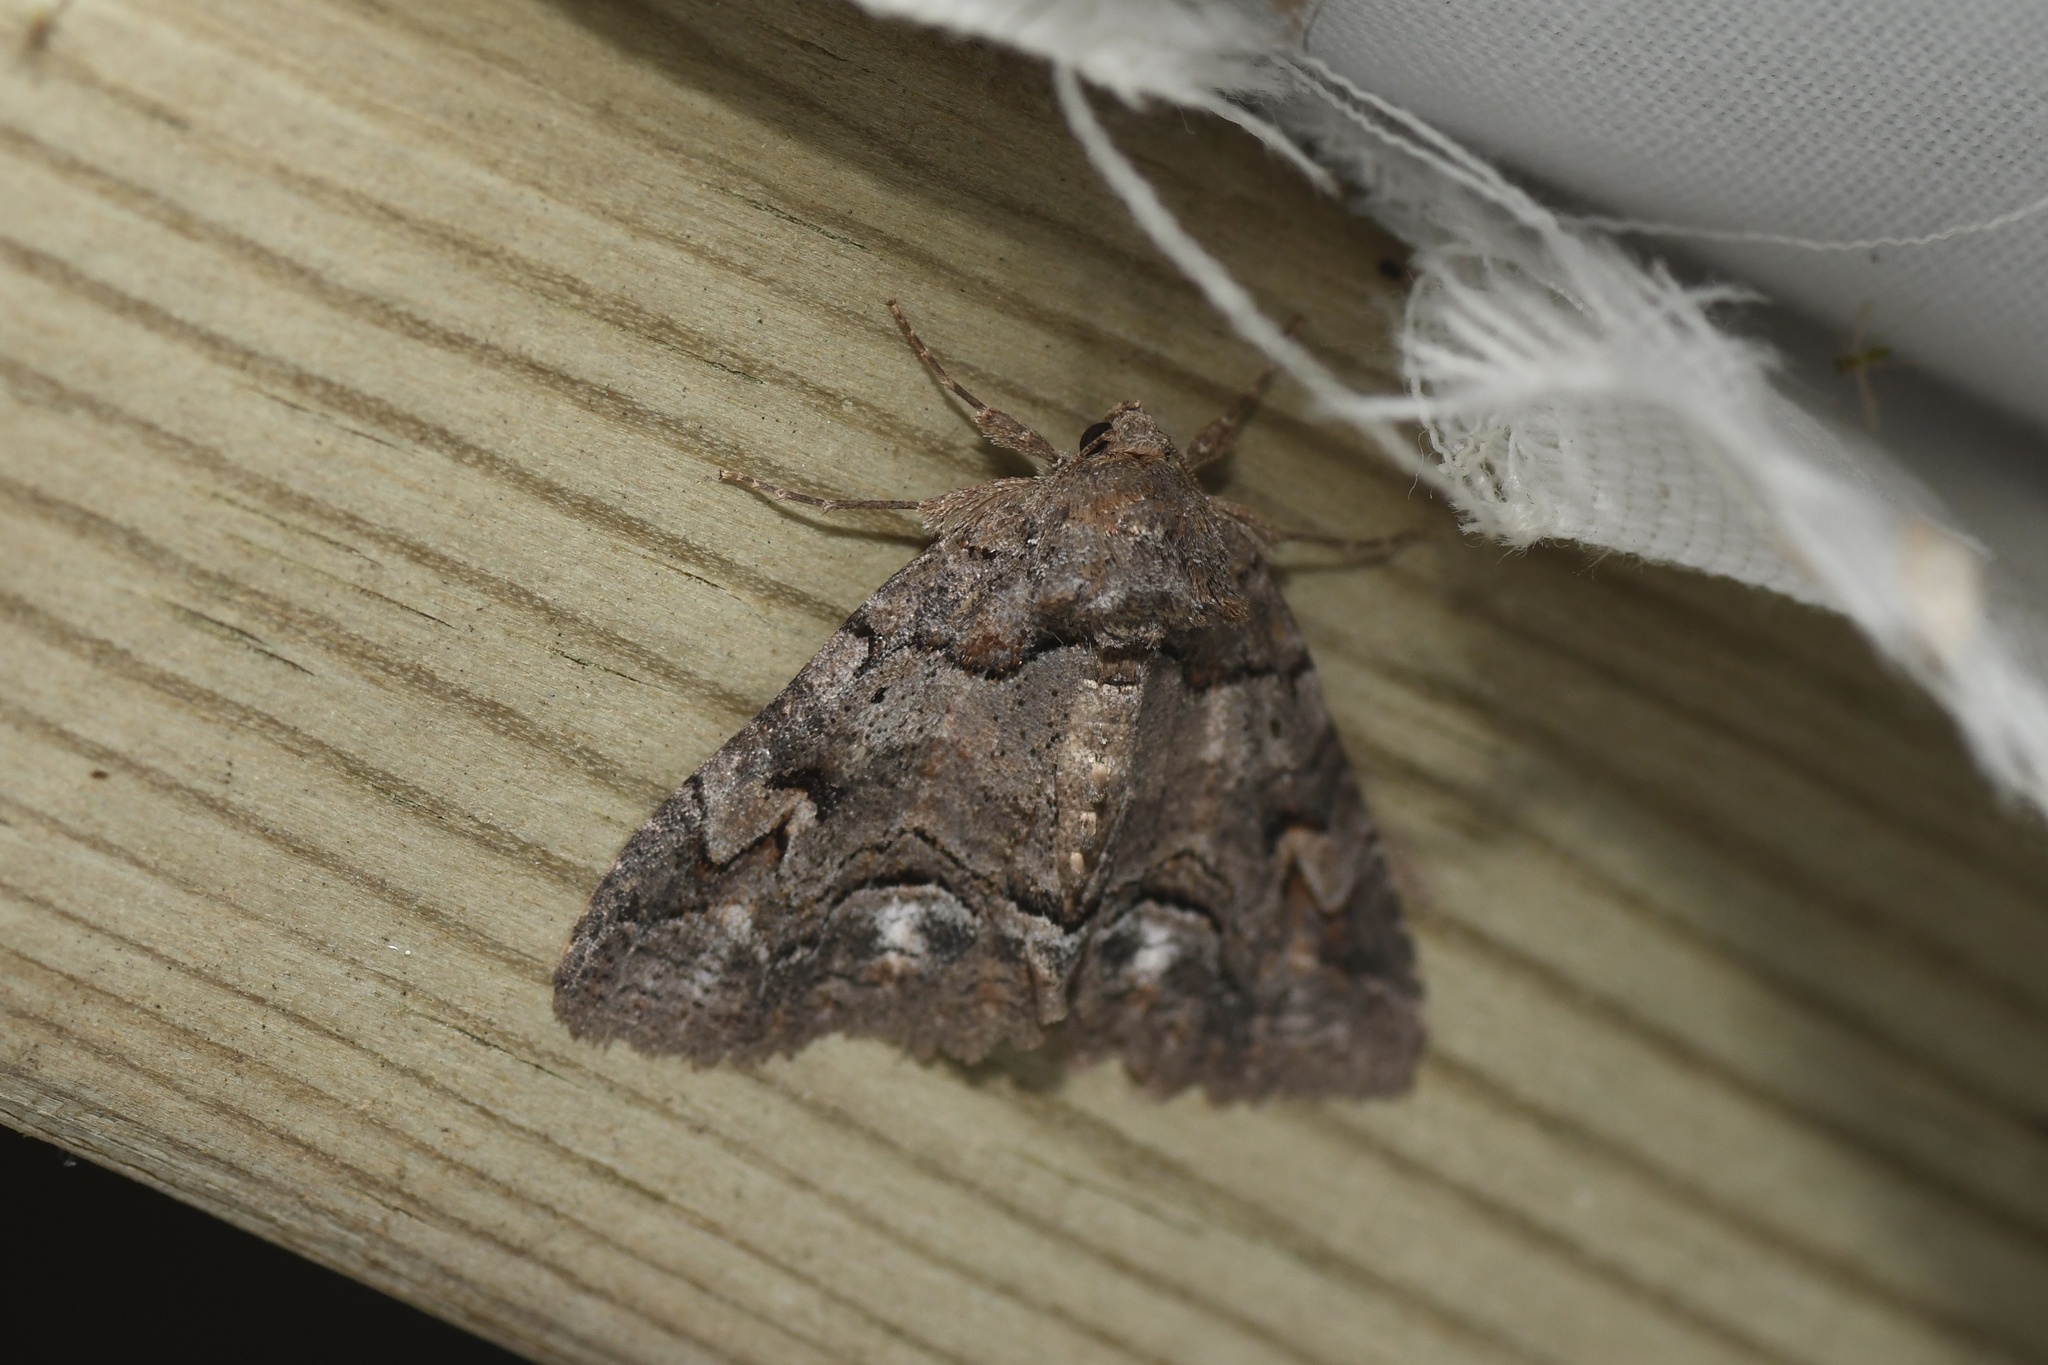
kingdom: Animalia
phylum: Arthropoda
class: Insecta
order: Lepidoptera
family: Erebidae
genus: Zale
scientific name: Zale helata
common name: Brown-spotted zale moth
